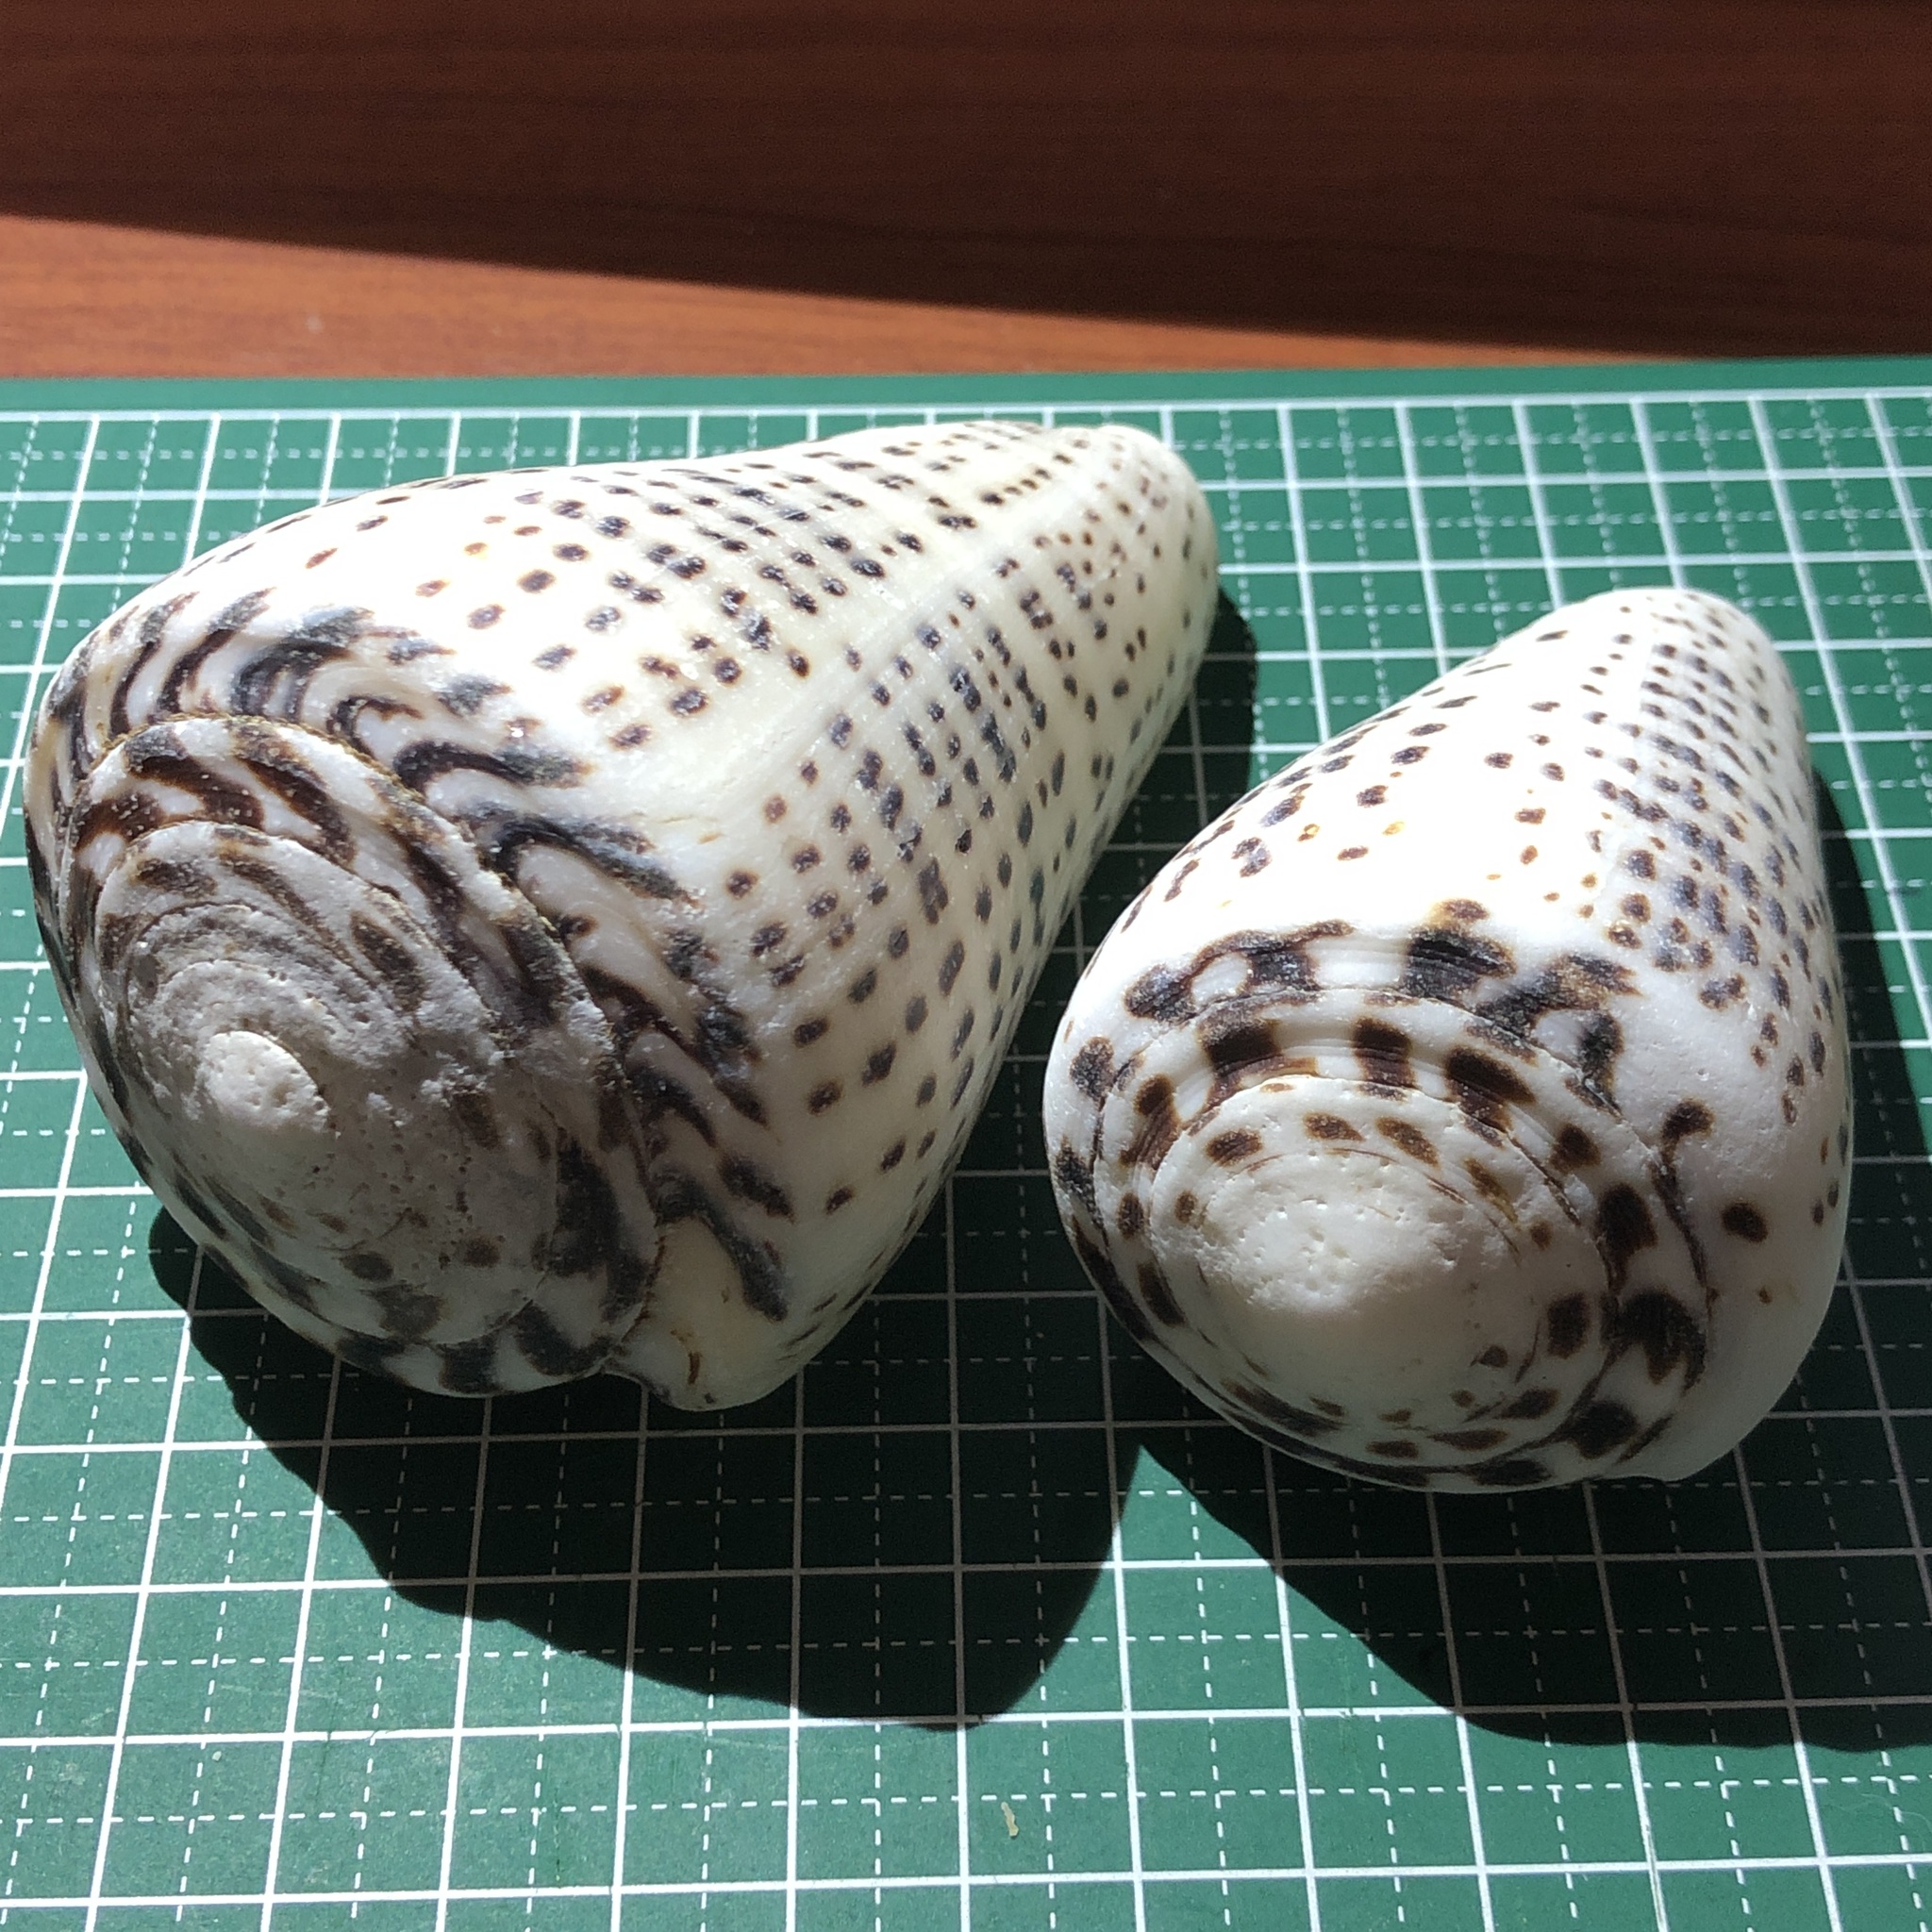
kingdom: Animalia
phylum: Mollusca
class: Gastropoda
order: Neogastropoda
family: Conidae
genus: Conus
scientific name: Conus leopardus
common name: Leopard cone
